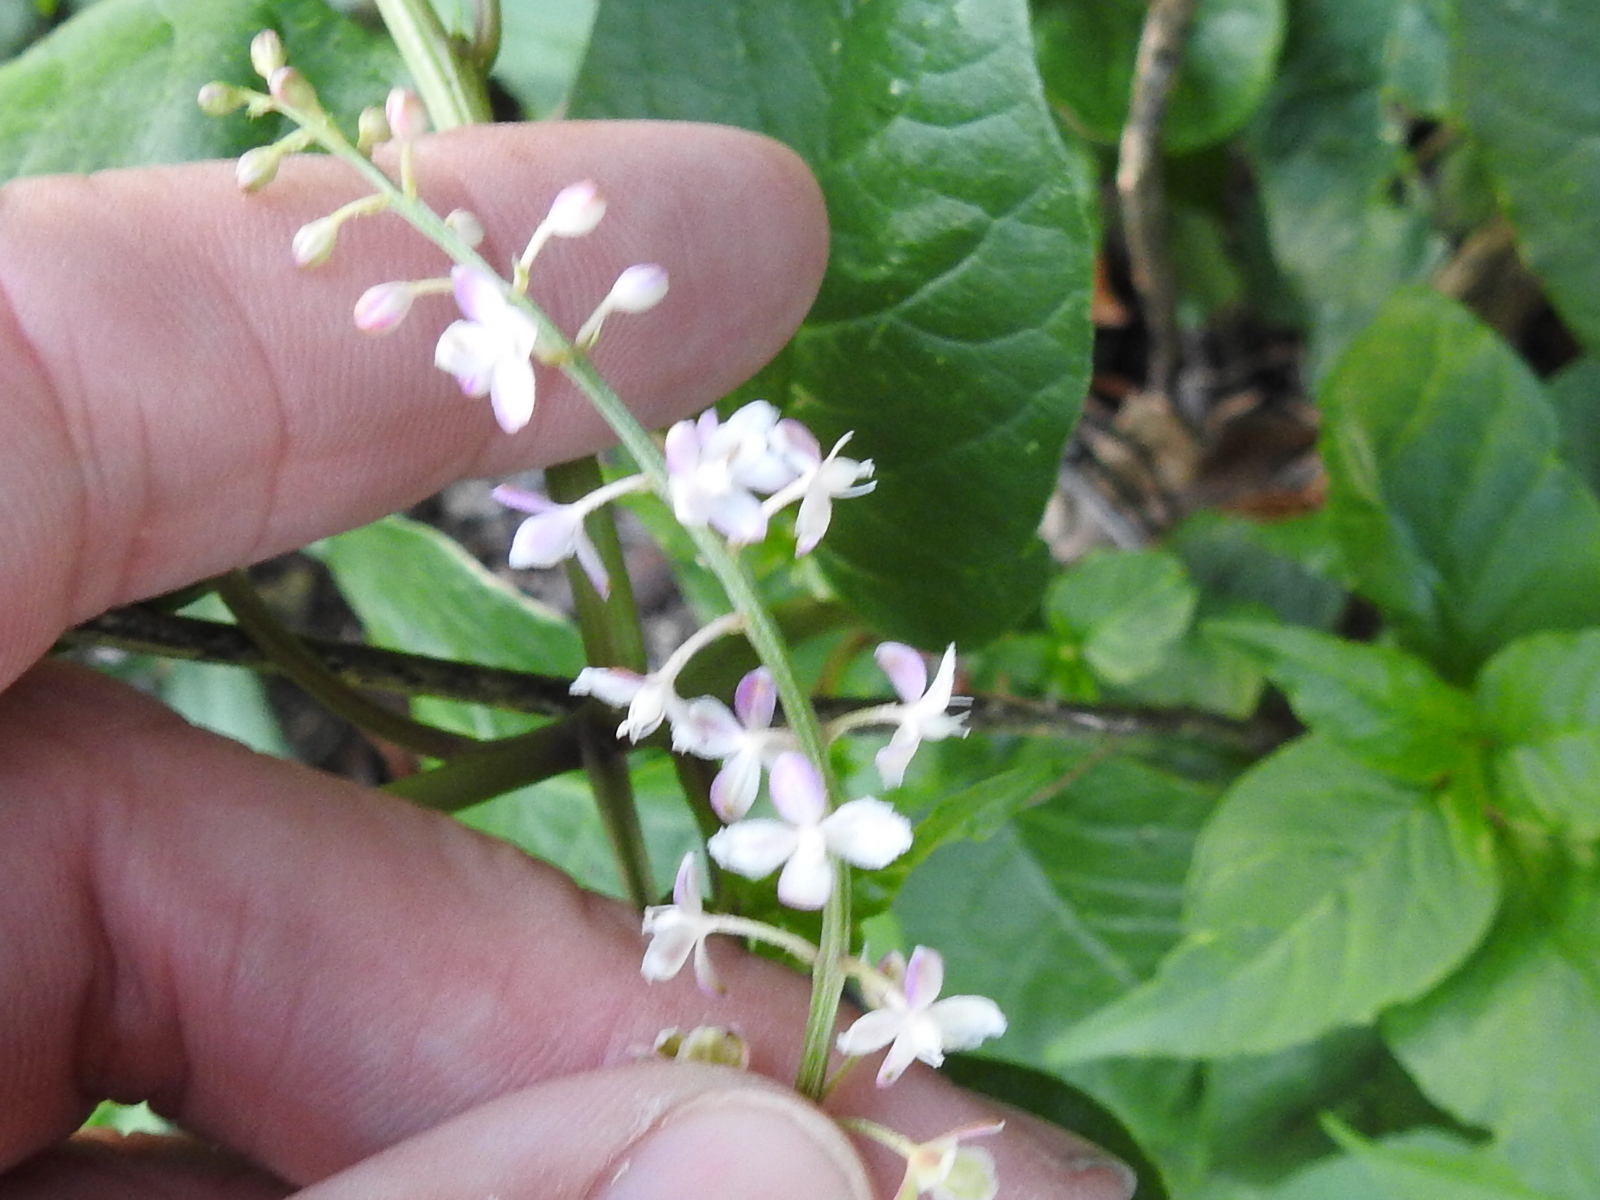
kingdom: Plantae
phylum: Tracheophyta
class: Magnoliopsida
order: Caryophyllales
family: Phytolaccaceae
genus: Rivina
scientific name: Rivina humilis
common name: Rougeplant
